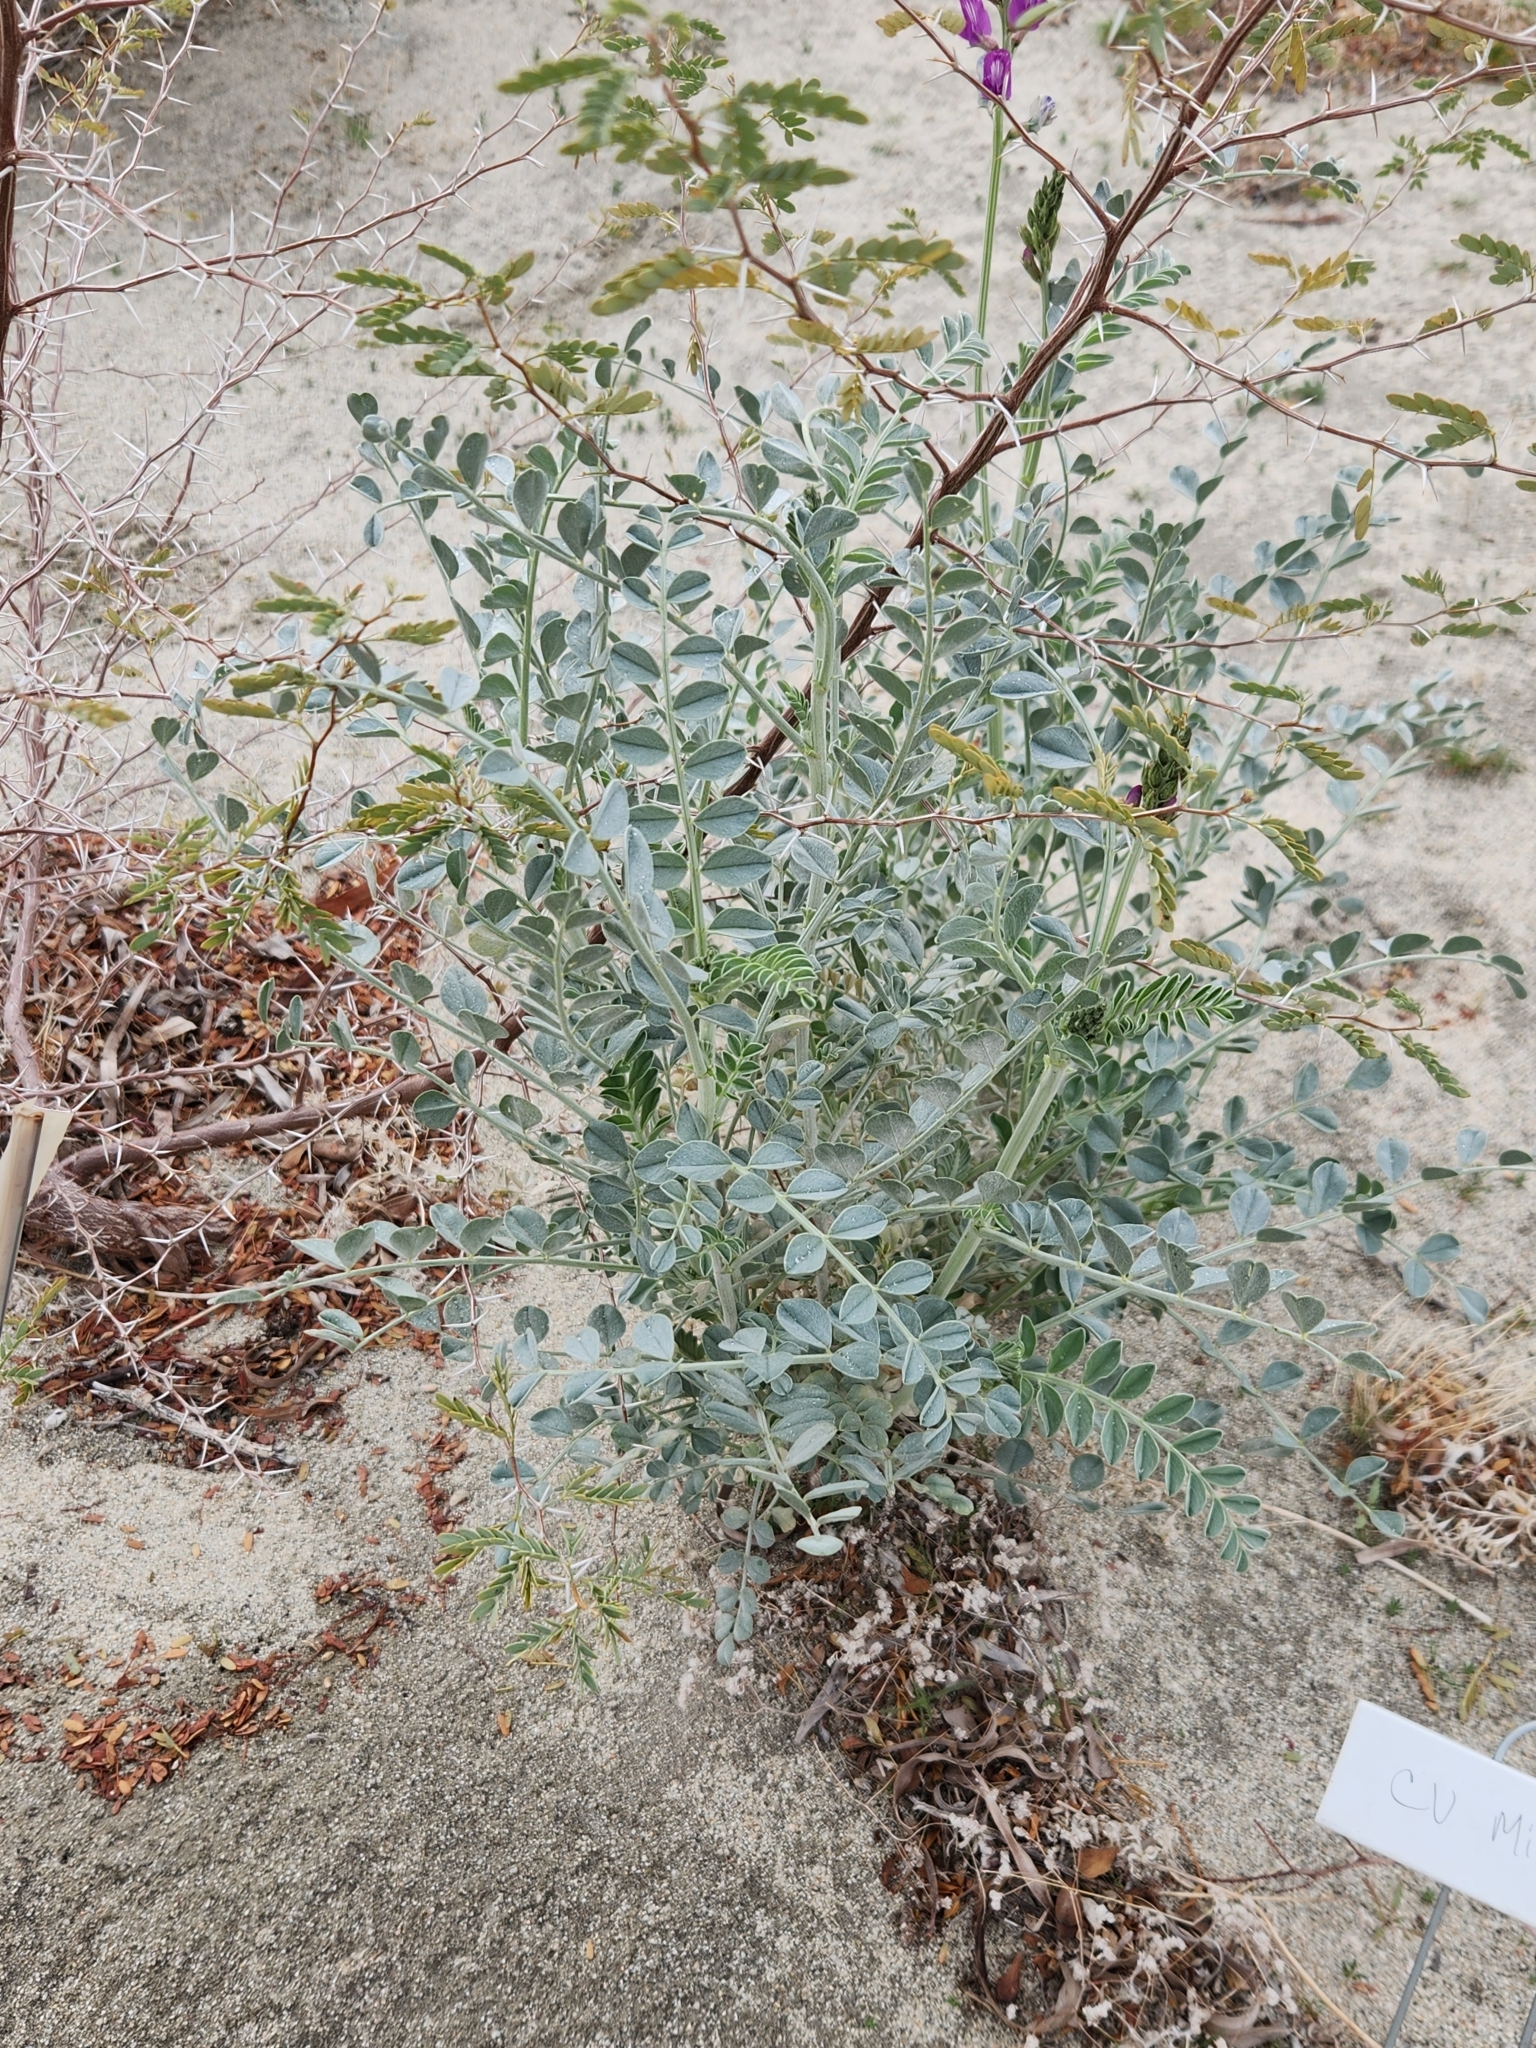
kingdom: Plantae
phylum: Tracheophyta
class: Magnoliopsida
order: Fabales
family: Fabaceae
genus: Astragalus
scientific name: Astragalus lentiginosus
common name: Freckled milkvetch
